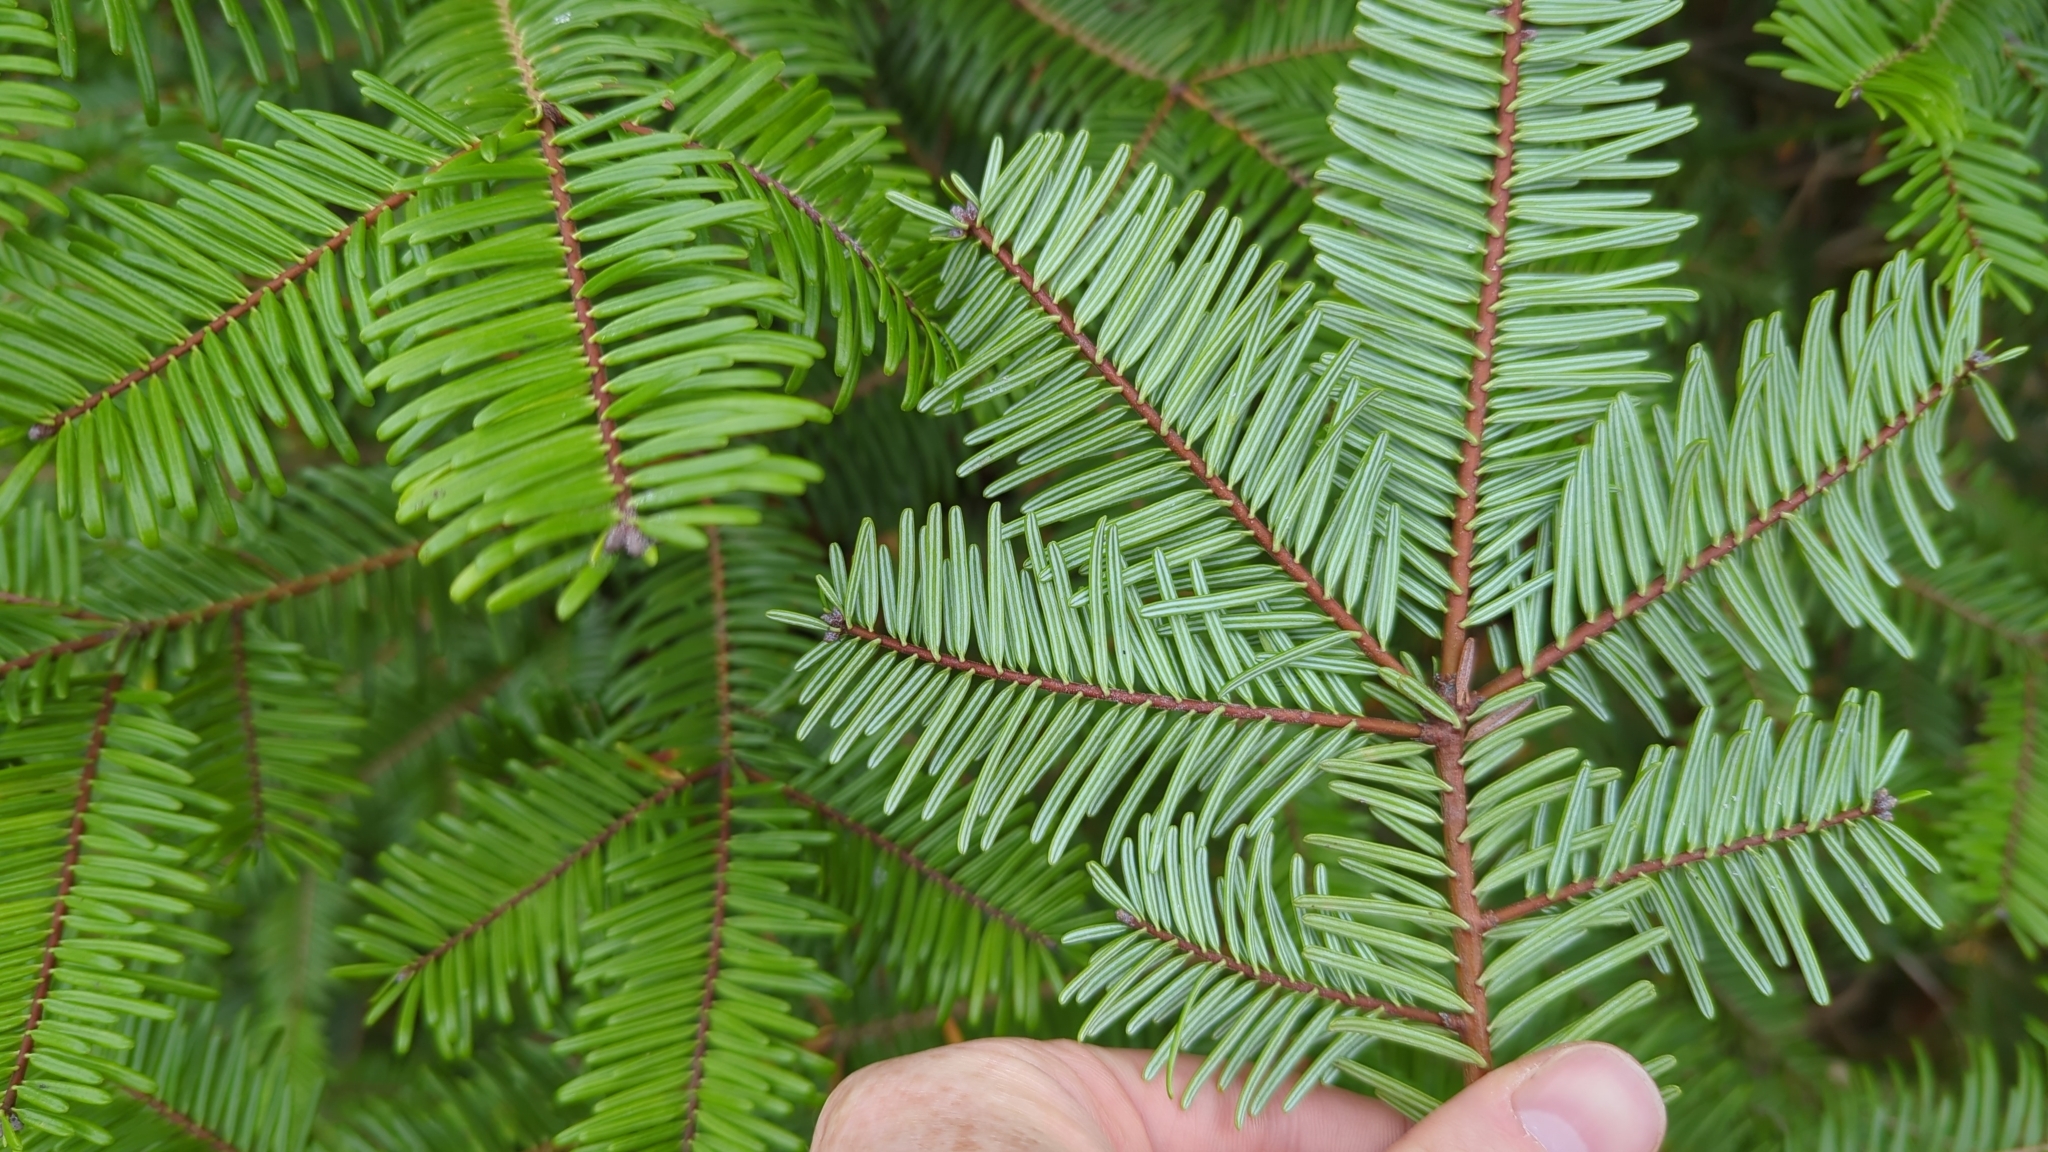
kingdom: Plantae
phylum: Tracheophyta
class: Pinopsida
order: Pinales
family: Pinaceae
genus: Abies
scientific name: Abies grandis
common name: Giant fir
